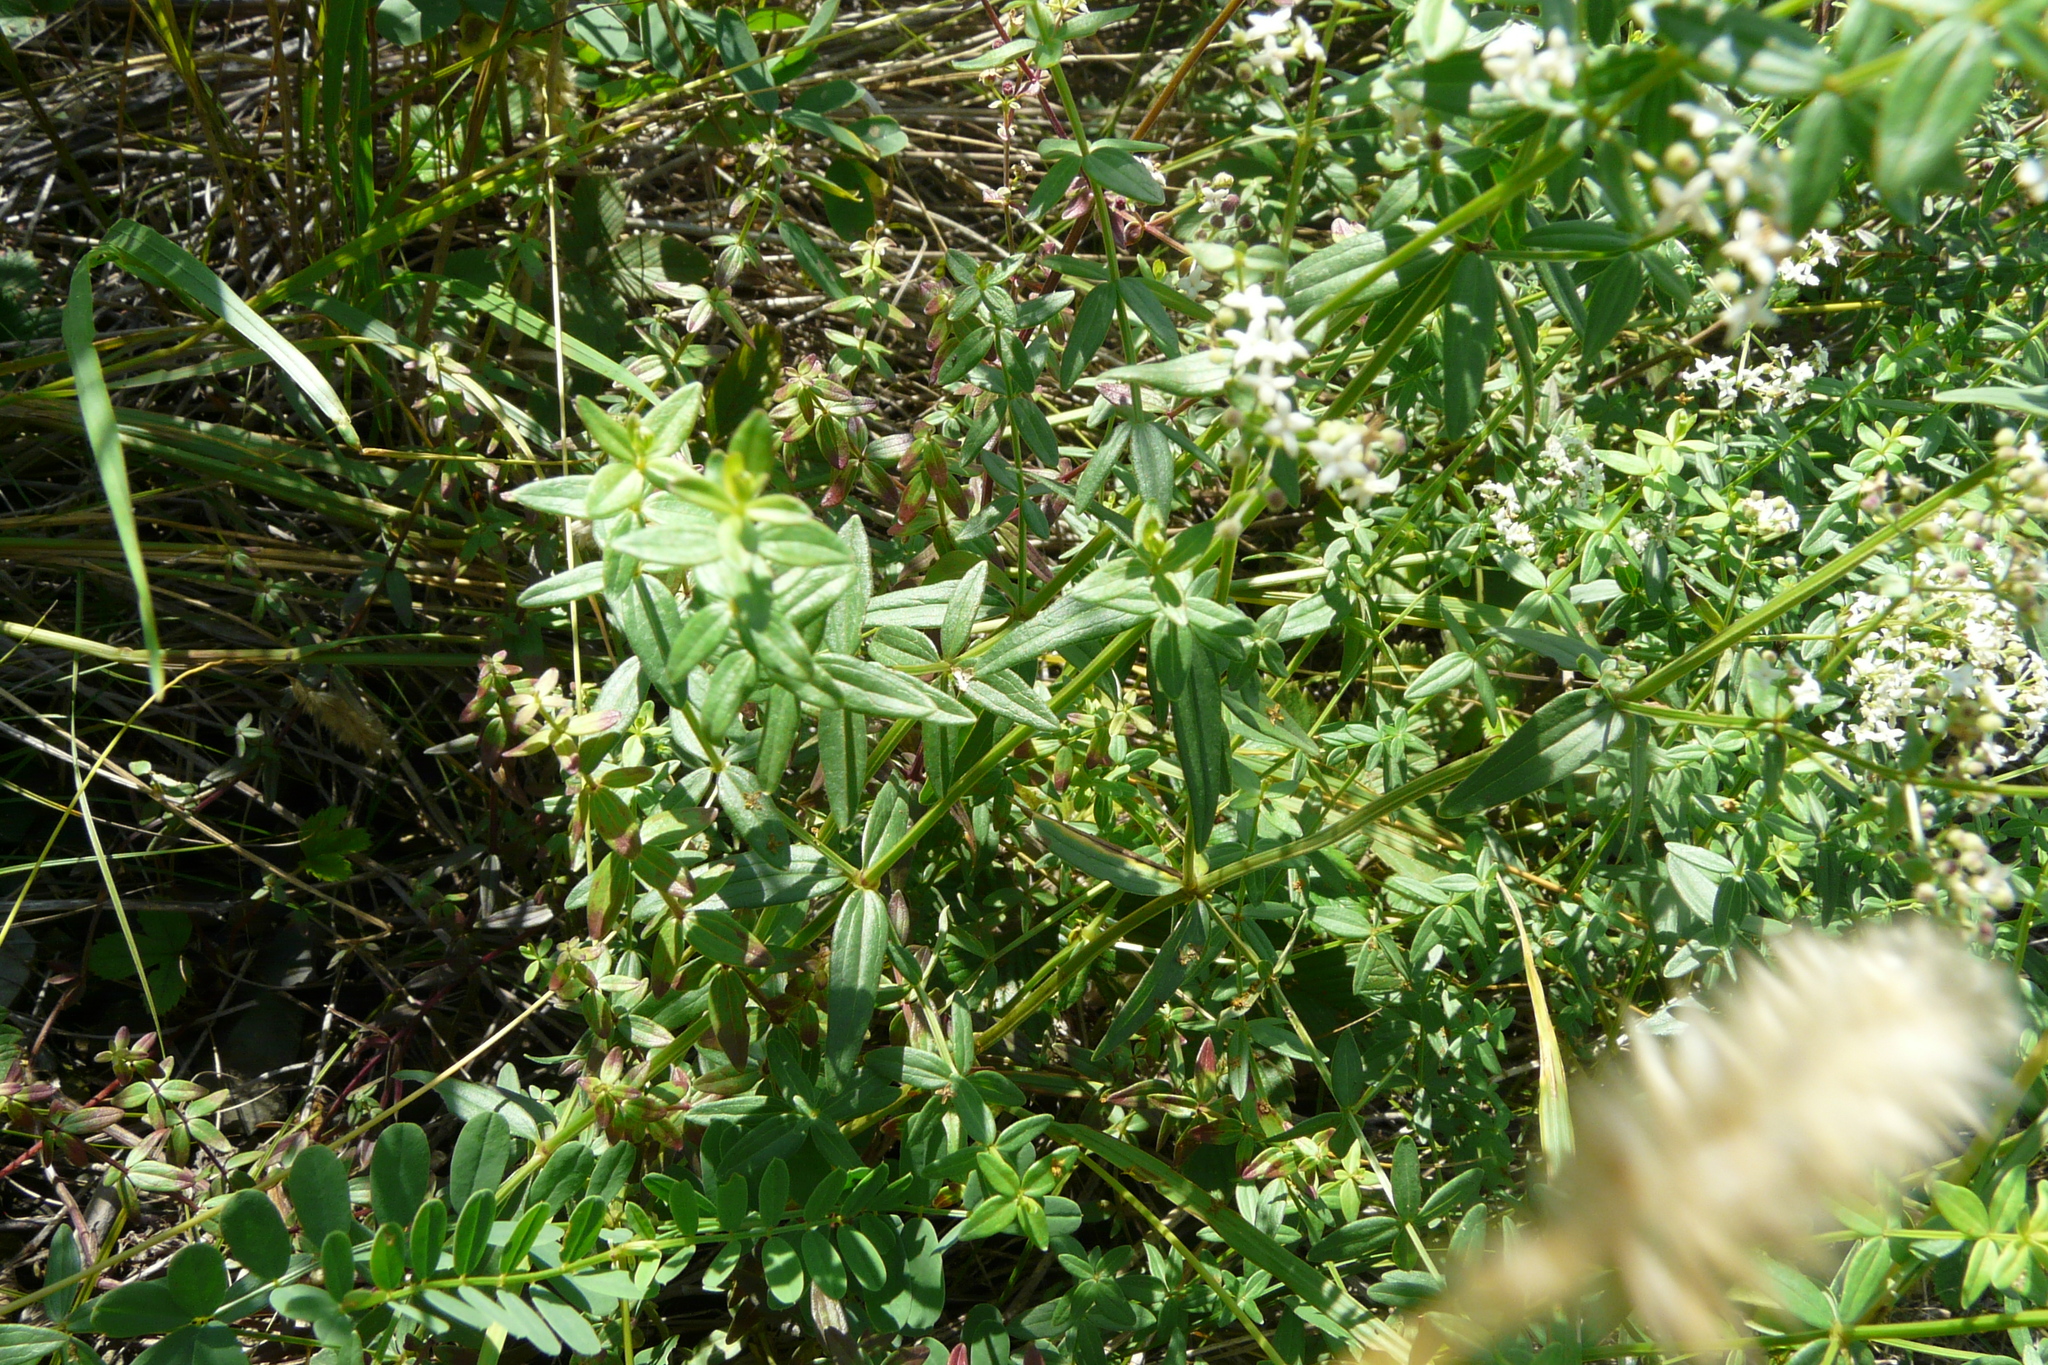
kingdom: Plantae
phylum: Tracheophyta
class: Magnoliopsida
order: Gentianales
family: Rubiaceae
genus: Galium
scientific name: Galium boreale
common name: Northern bedstraw
